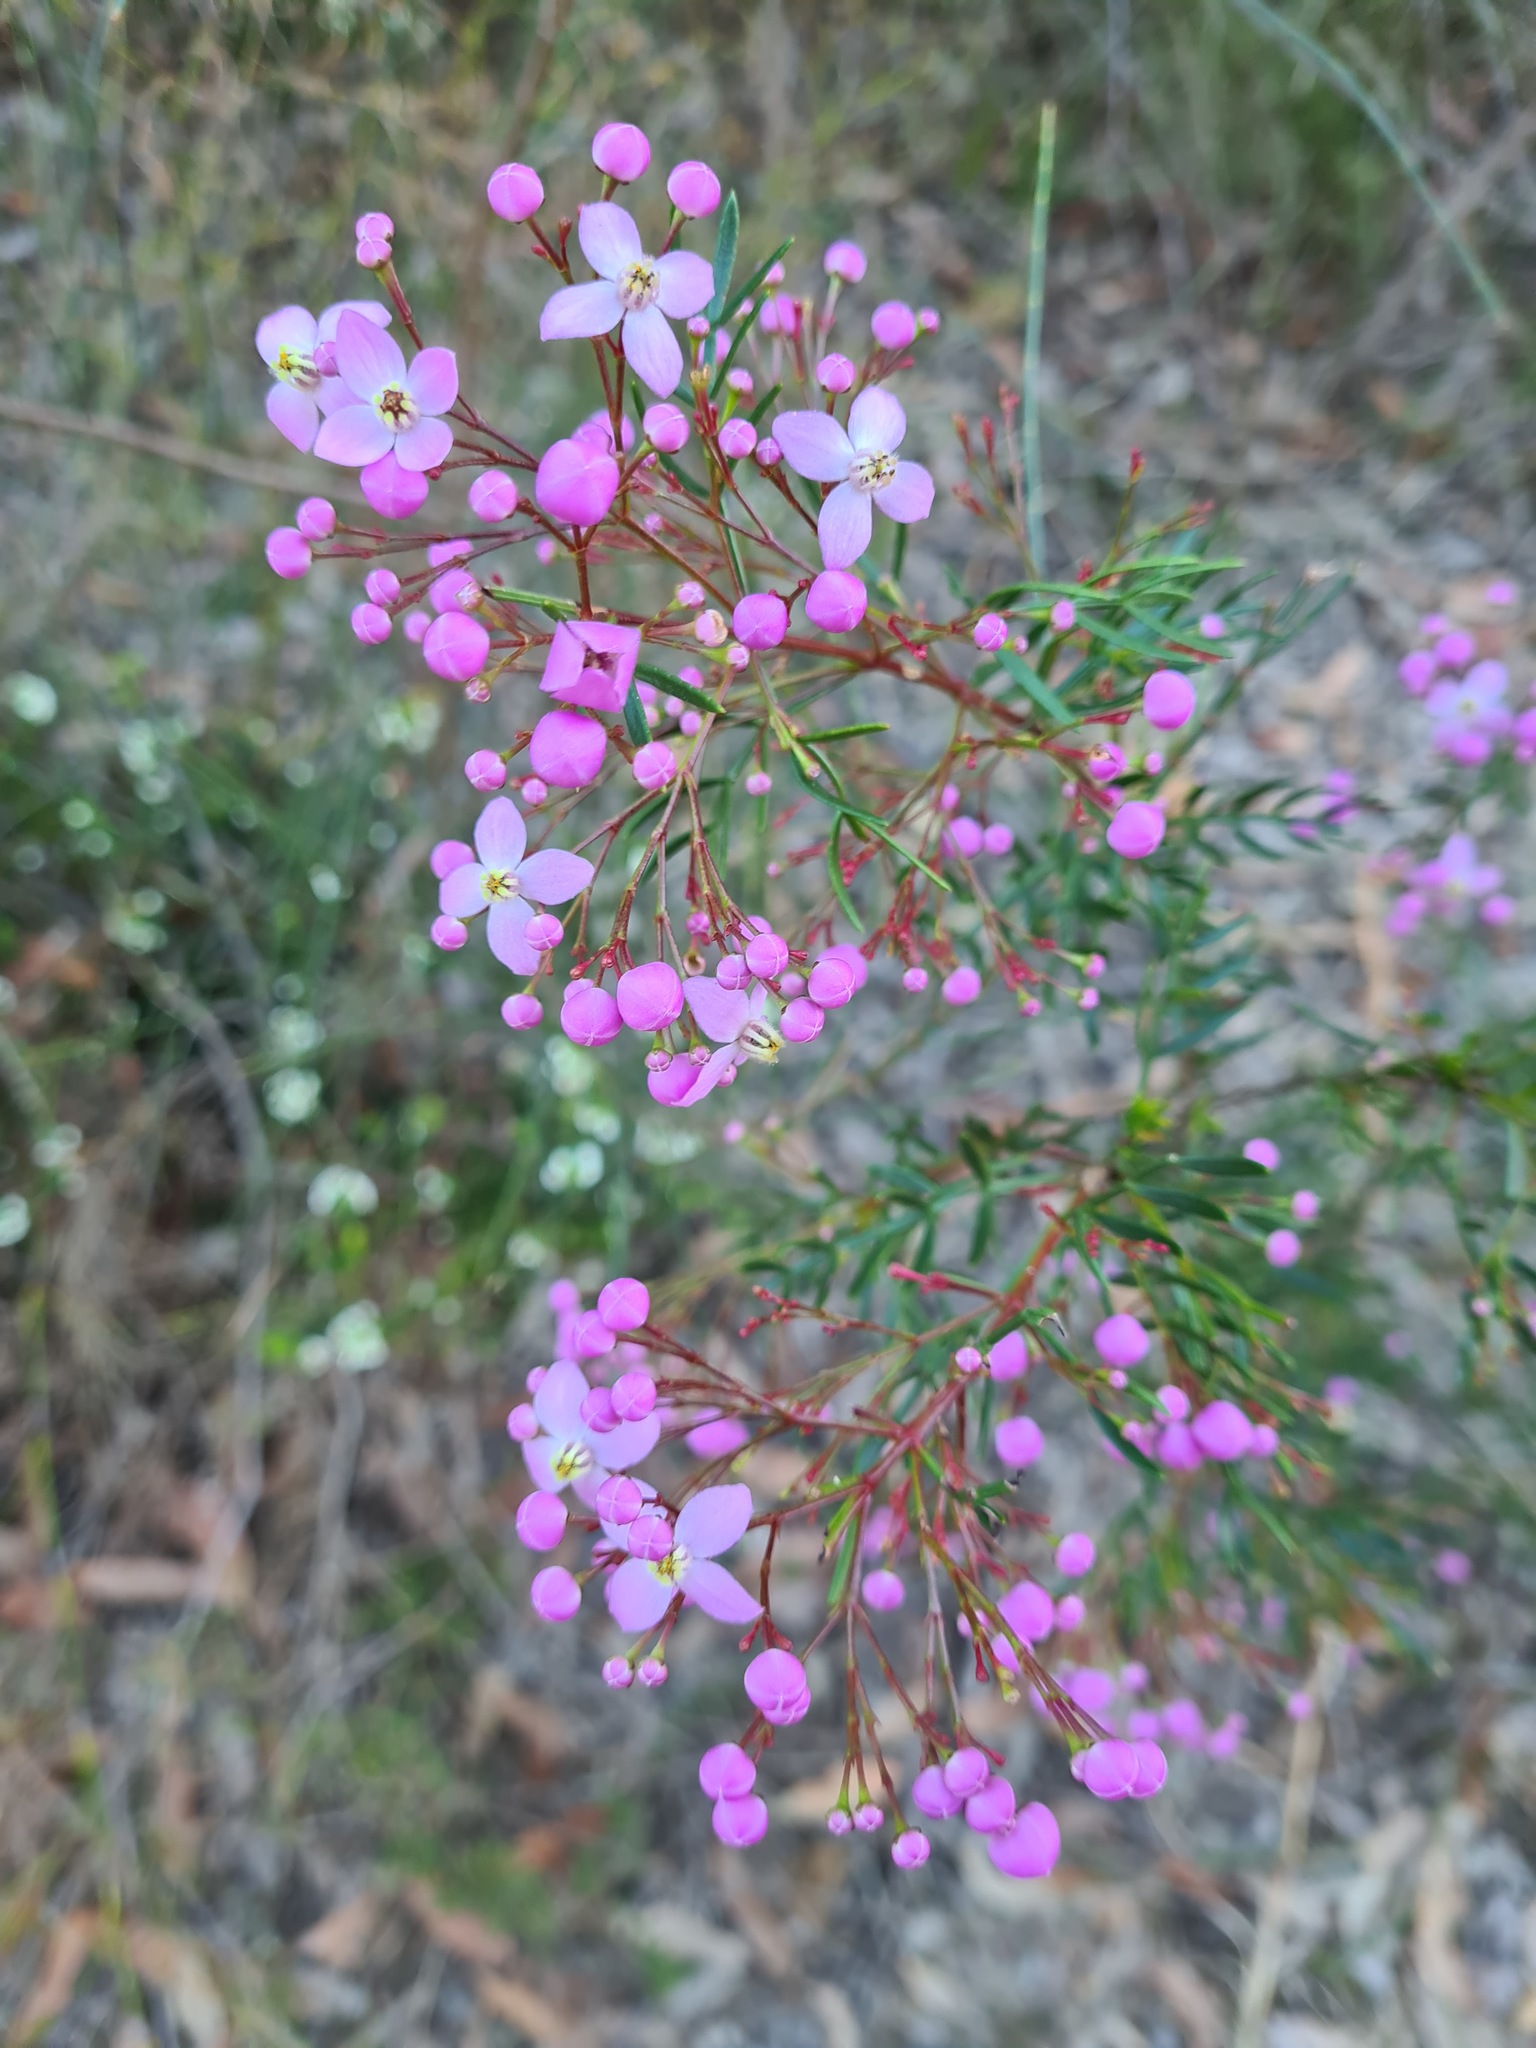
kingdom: Plantae
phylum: Tracheophyta
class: Magnoliopsida
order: Sapindales
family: Rutaceae
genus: Boronia
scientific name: Boronia pinnata
